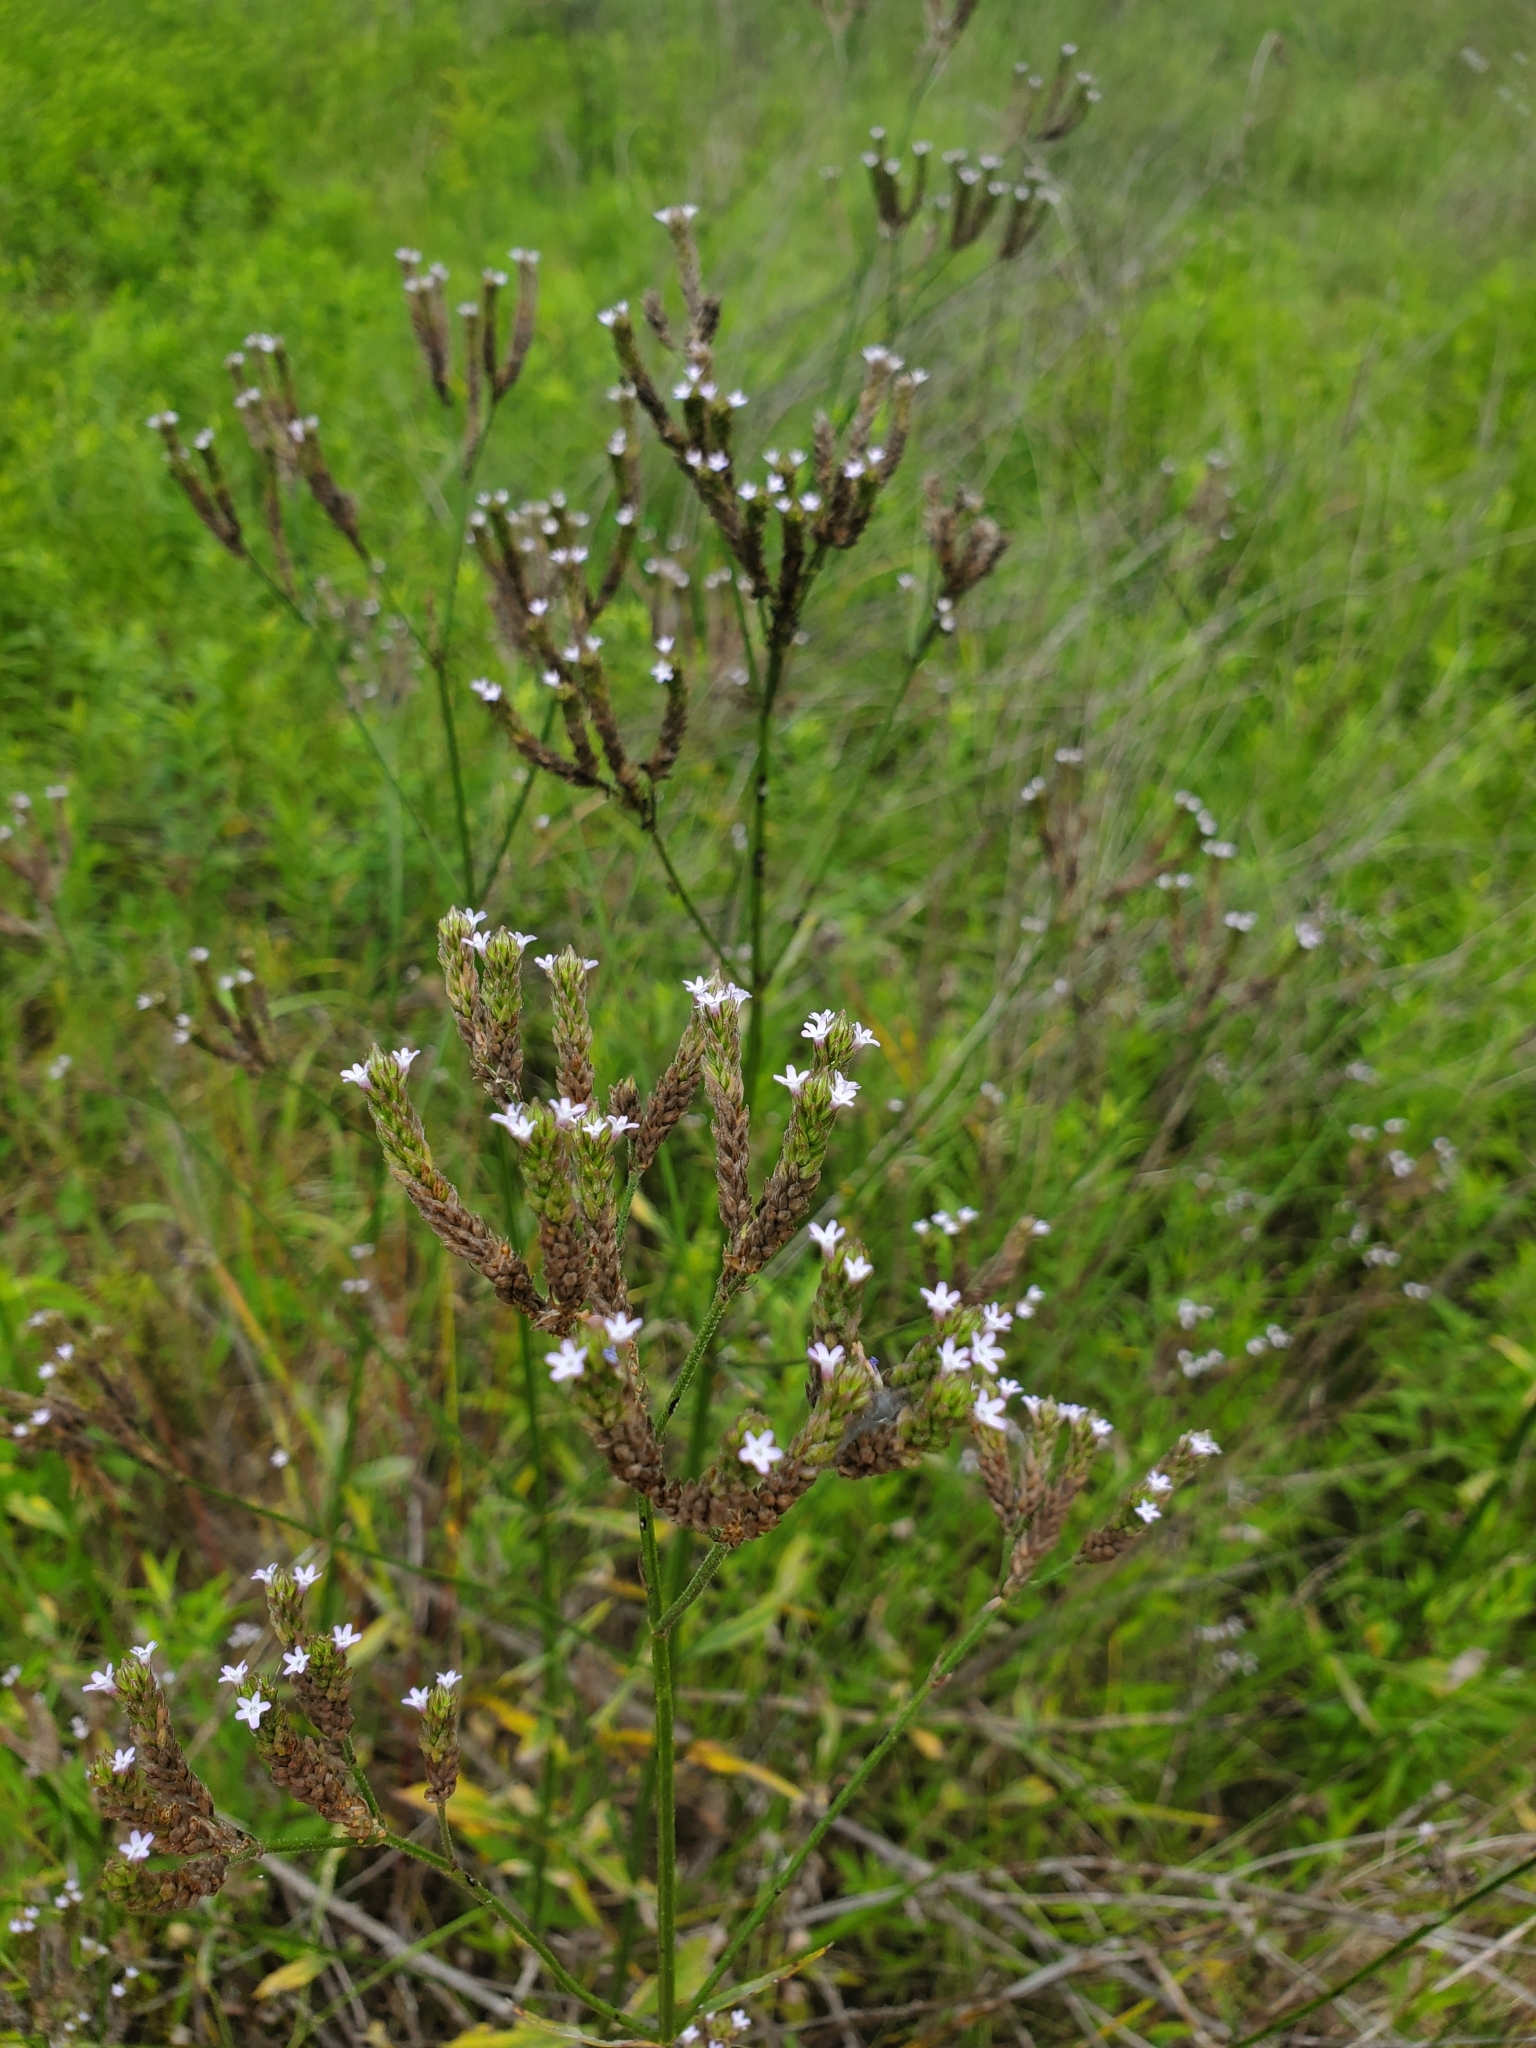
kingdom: Plantae
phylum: Tracheophyta
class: Magnoliopsida
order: Lamiales
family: Verbenaceae
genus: Verbena
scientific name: Verbena brasiliensis
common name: Brazilian vervain
